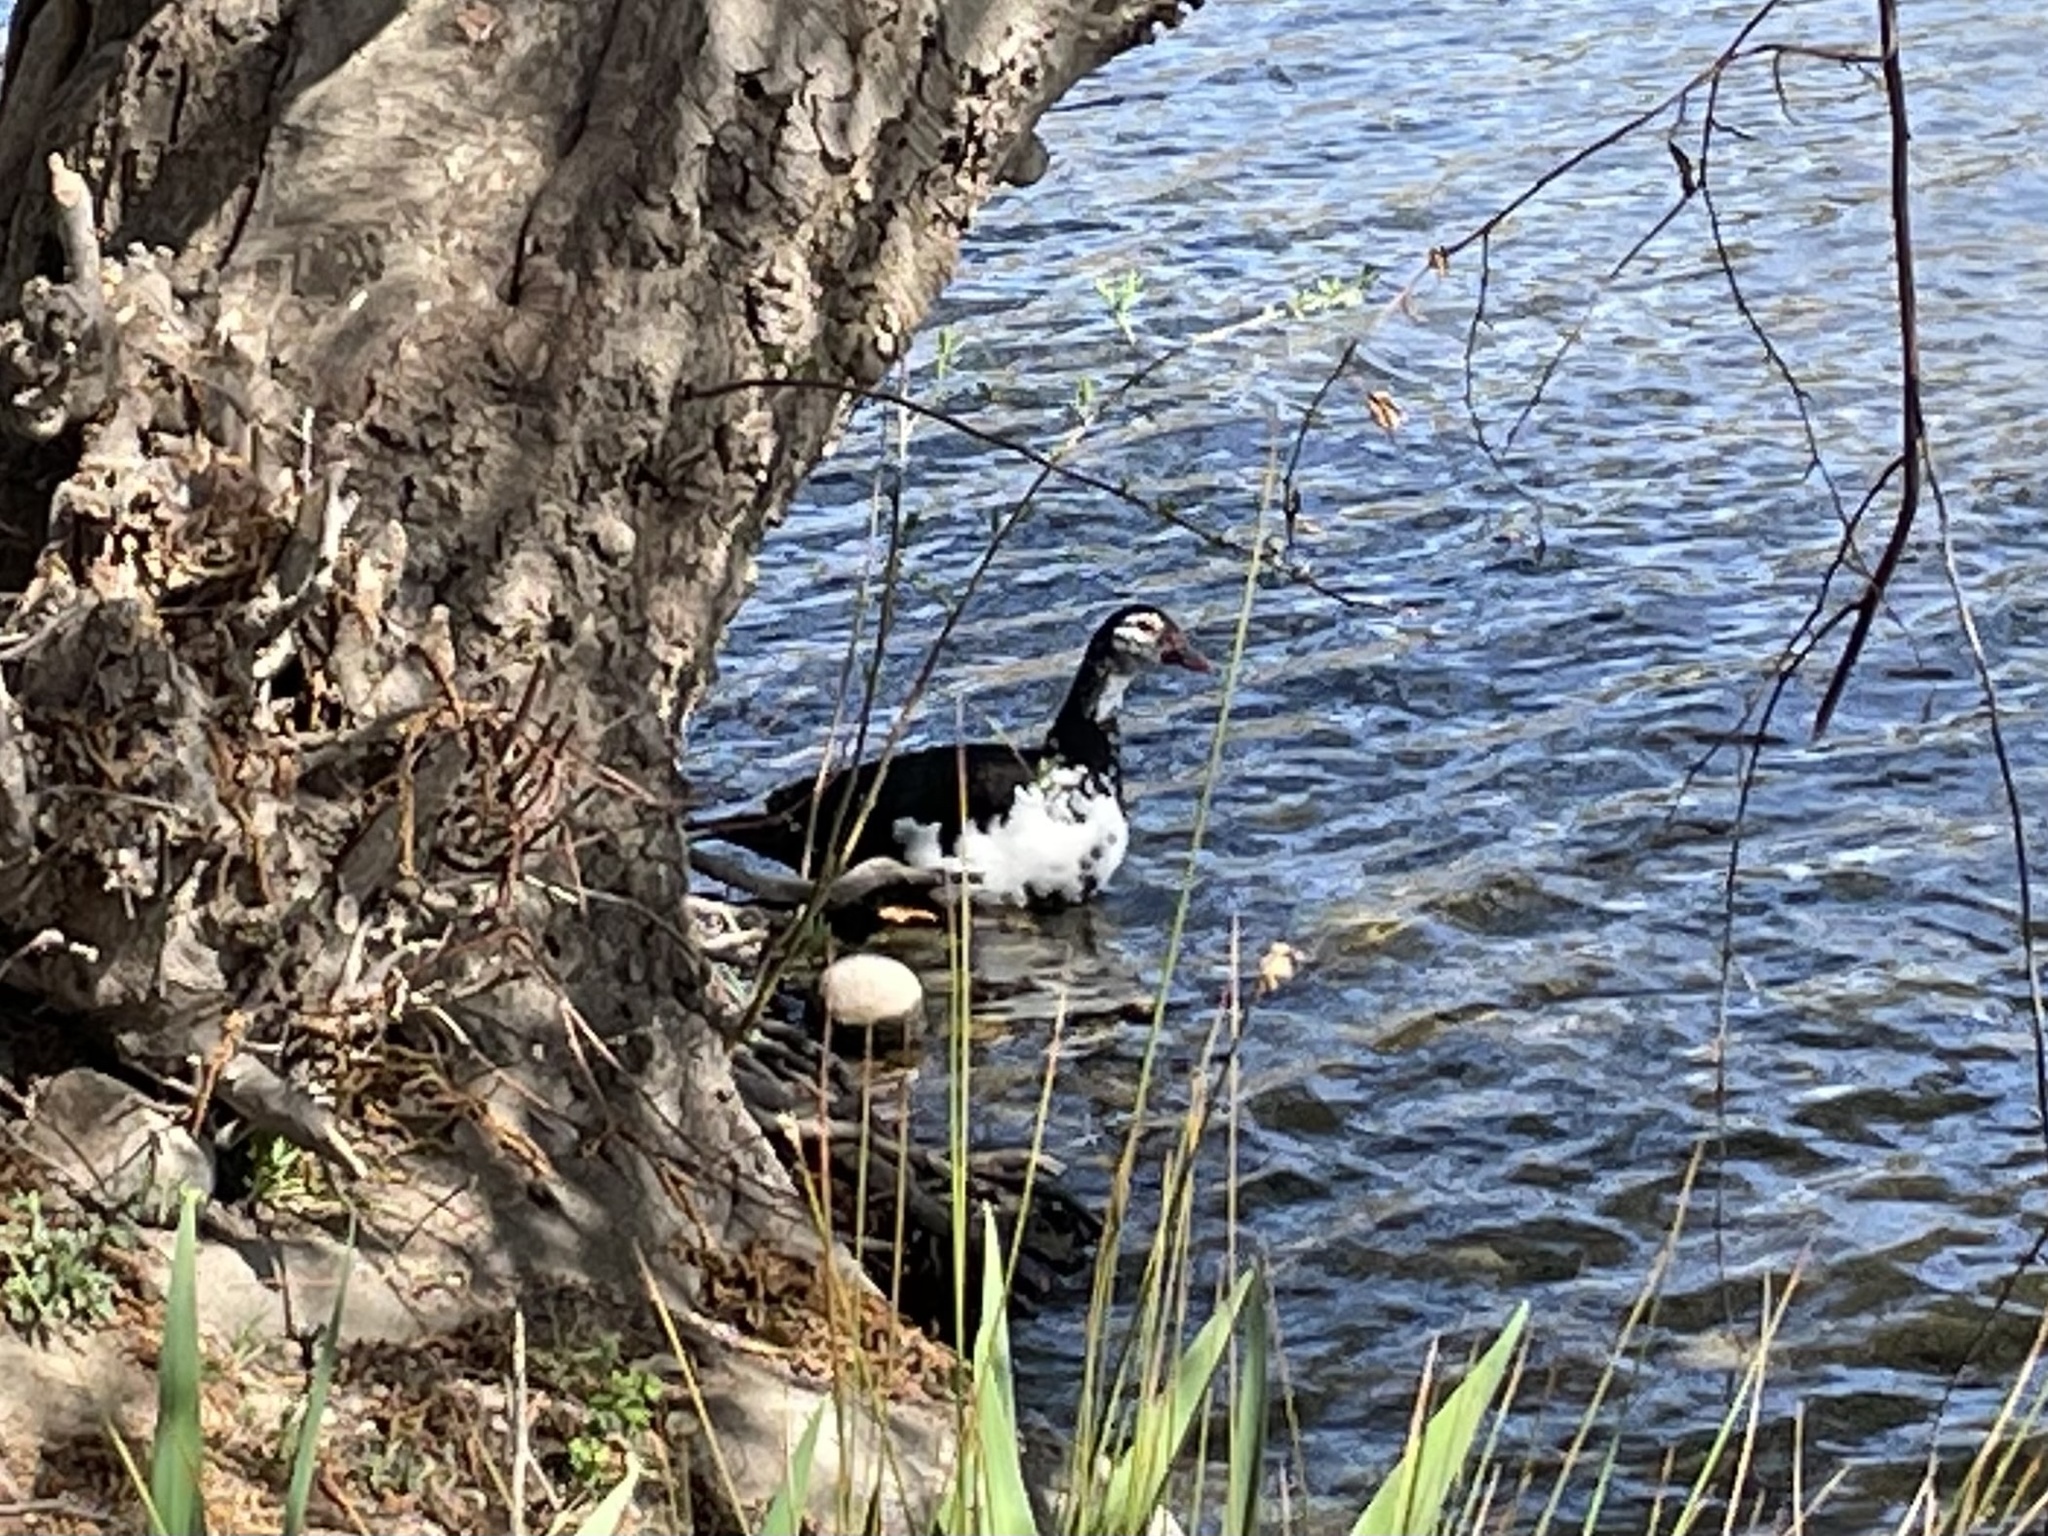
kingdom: Animalia
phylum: Chordata
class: Aves
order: Anseriformes
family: Anatidae
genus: Cairina
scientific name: Cairina moschata
